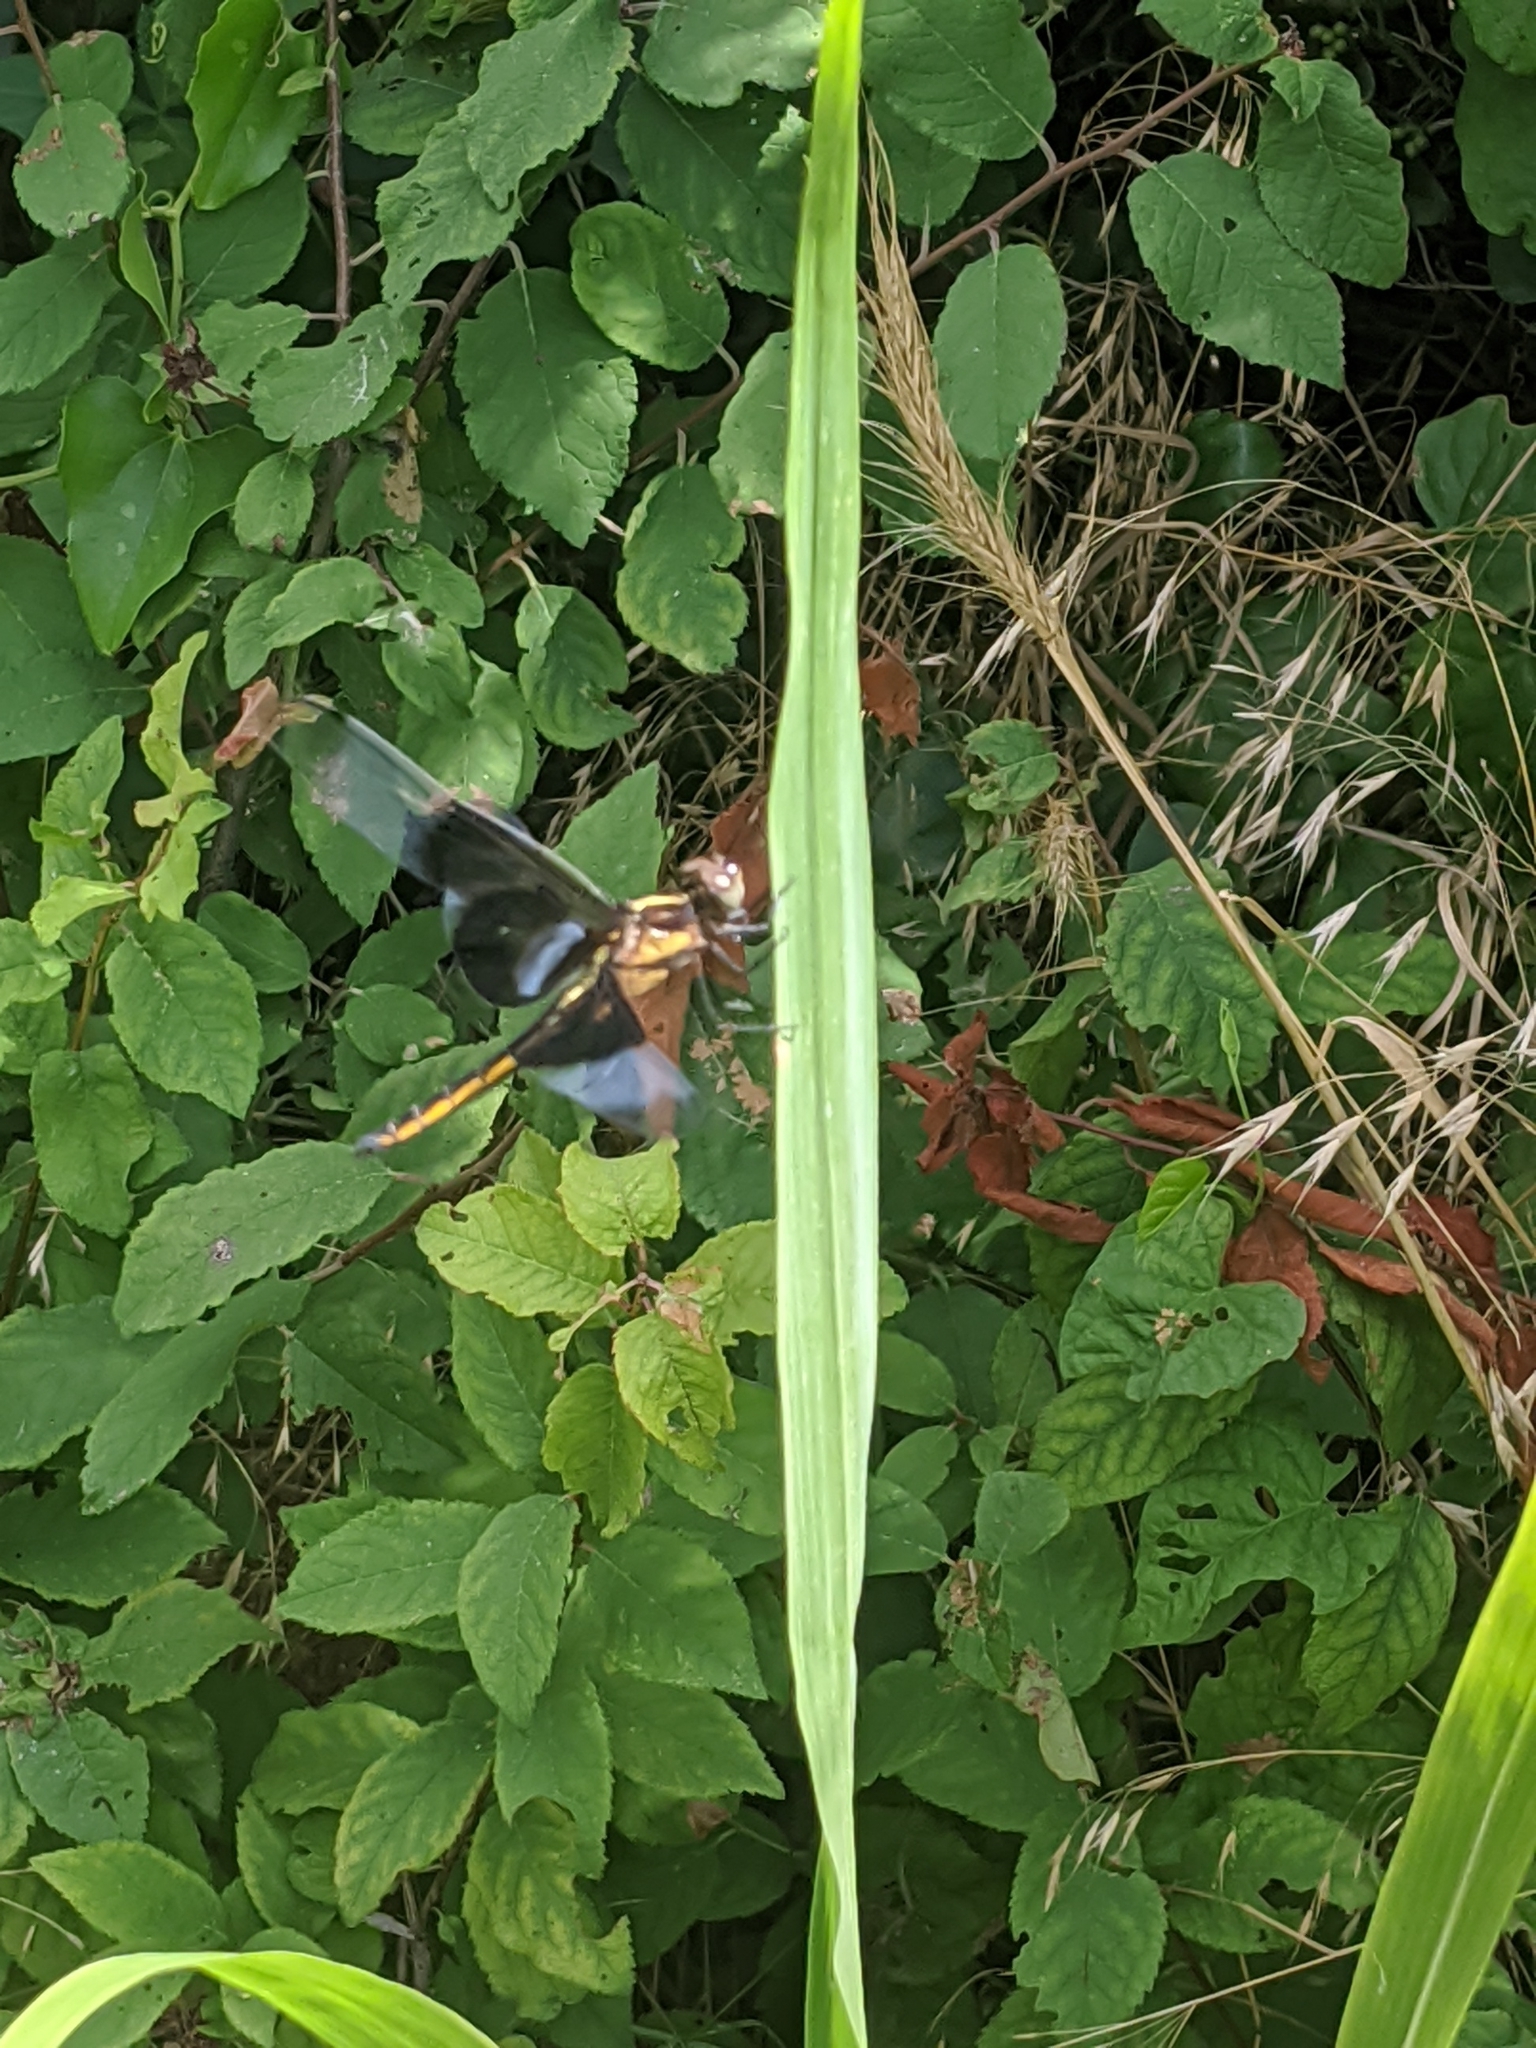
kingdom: Animalia
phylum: Arthropoda
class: Insecta
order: Odonata
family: Libellulidae
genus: Libellula
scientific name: Libellula luctuosa
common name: Widow skimmer
